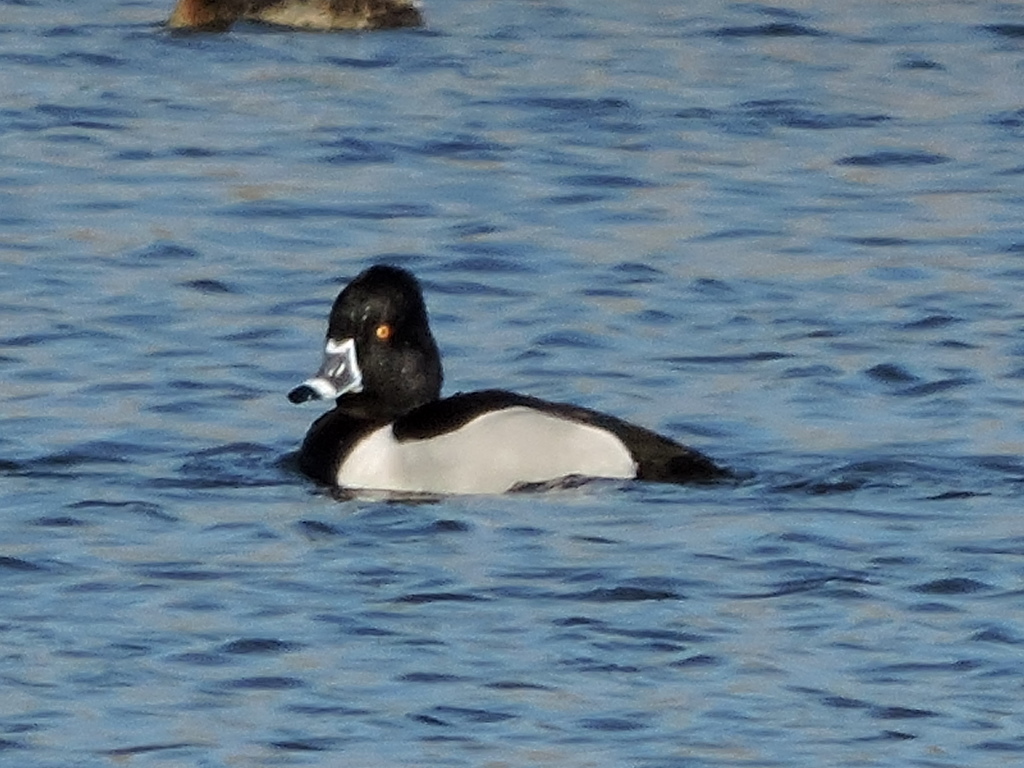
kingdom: Animalia
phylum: Chordata
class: Aves
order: Anseriformes
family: Anatidae
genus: Aythya
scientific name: Aythya collaris
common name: Ring-necked duck
